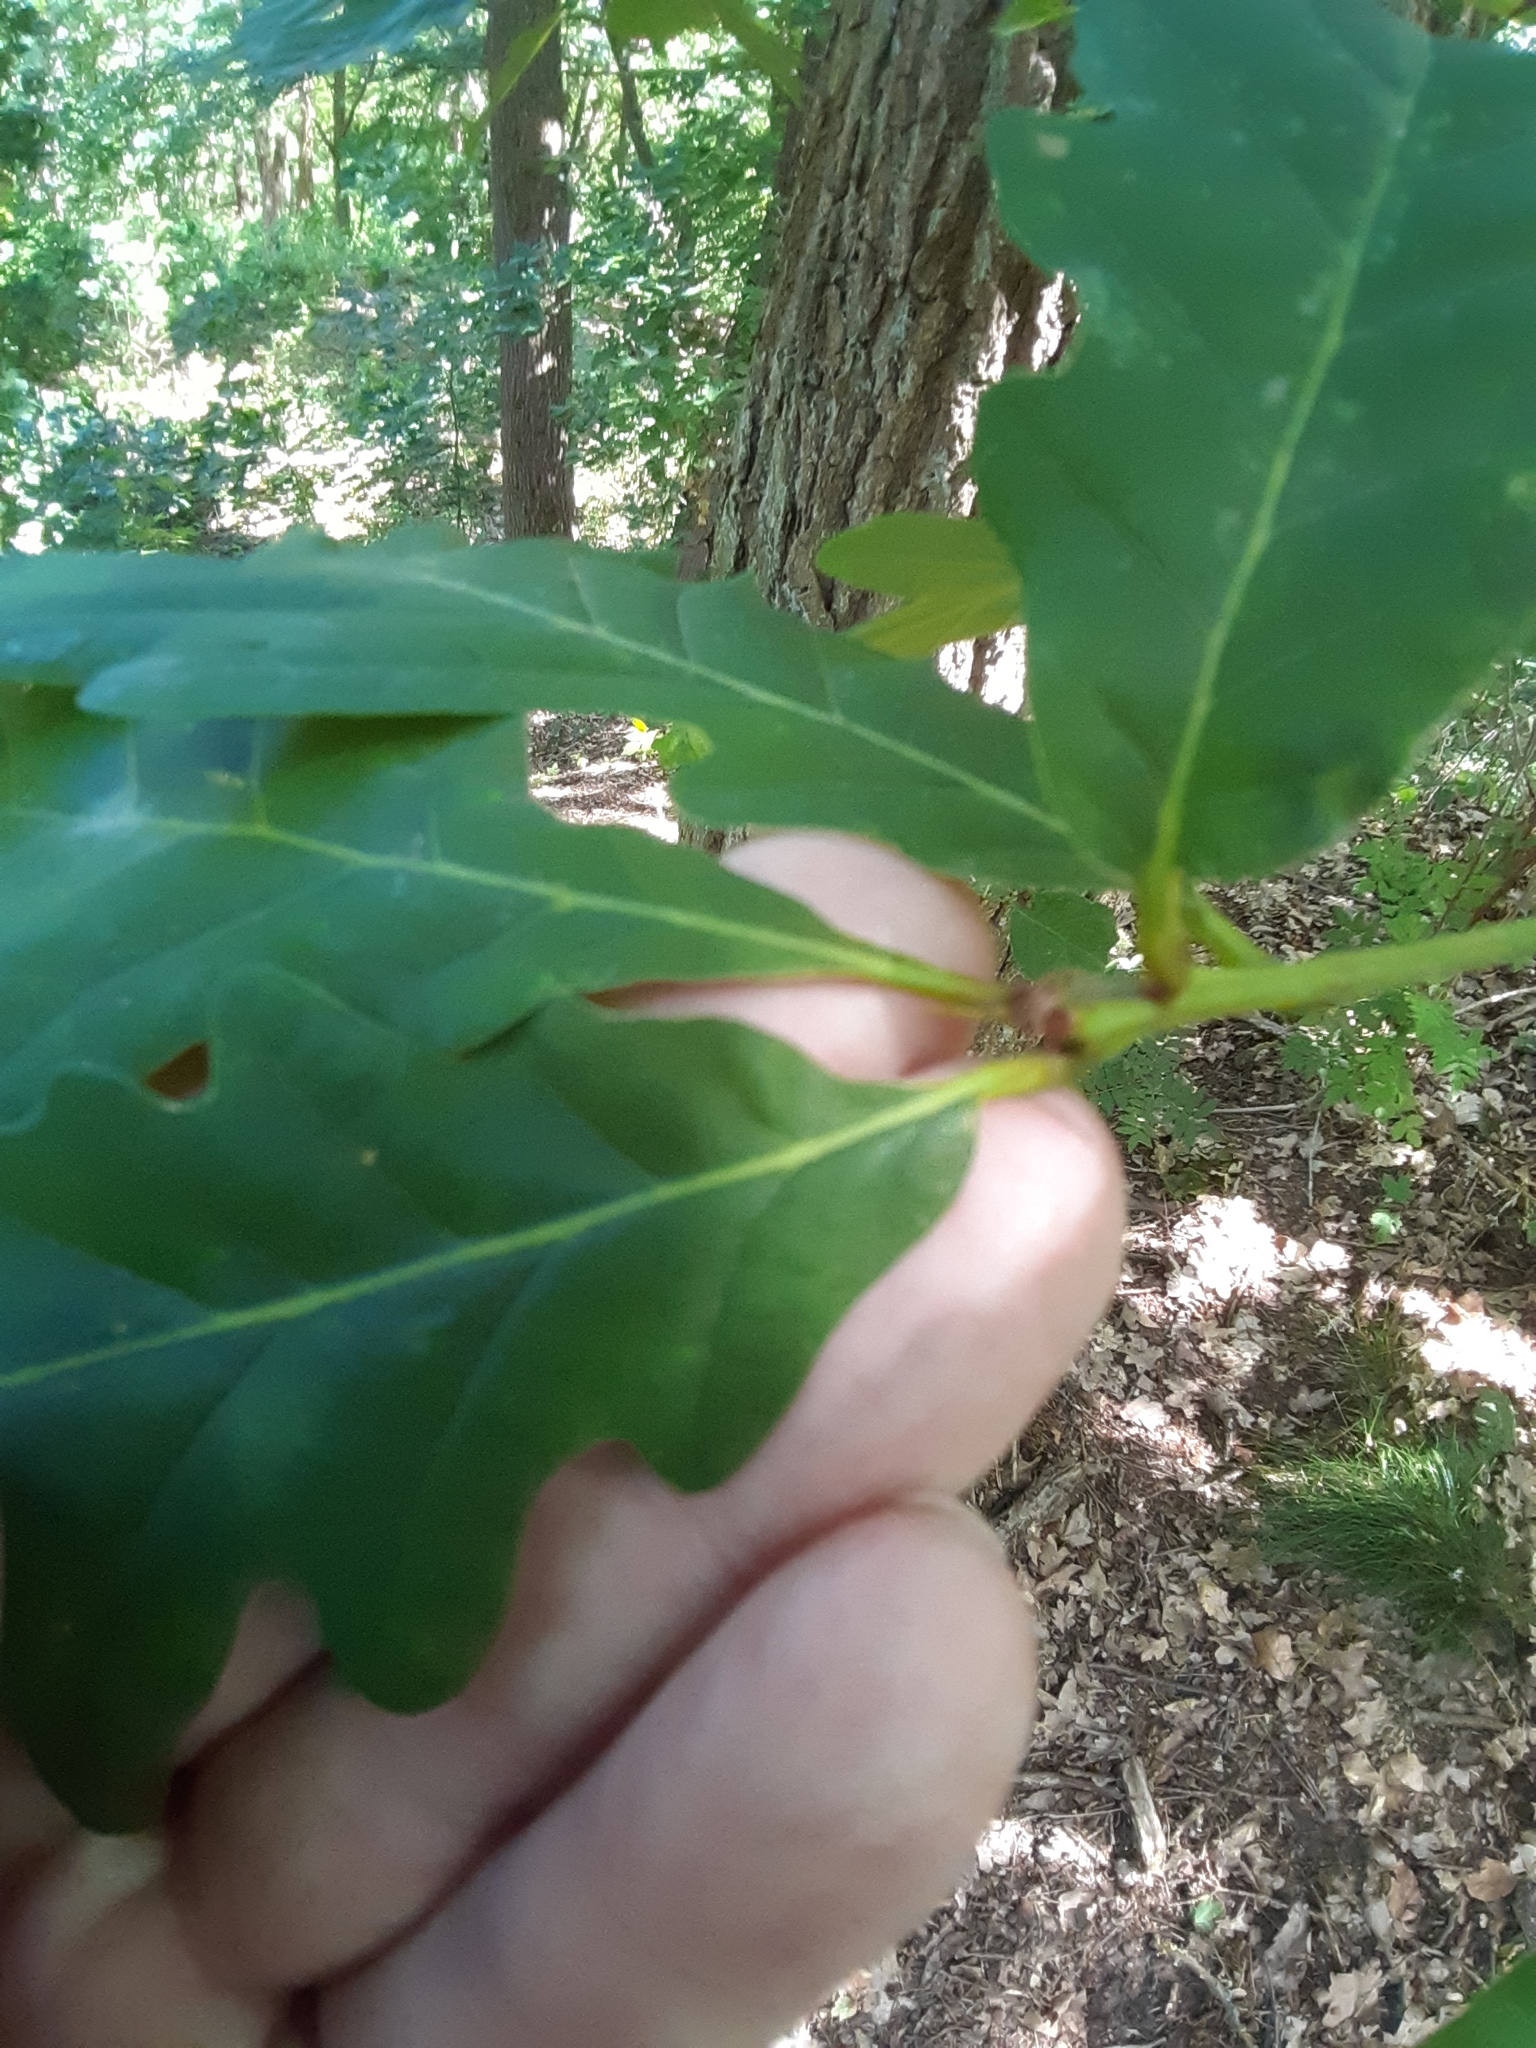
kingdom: Plantae
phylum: Tracheophyta
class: Magnoliopsida
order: Fagales
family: Fagaceae
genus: Quercus
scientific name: Quercus petraea
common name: Sessile oak
